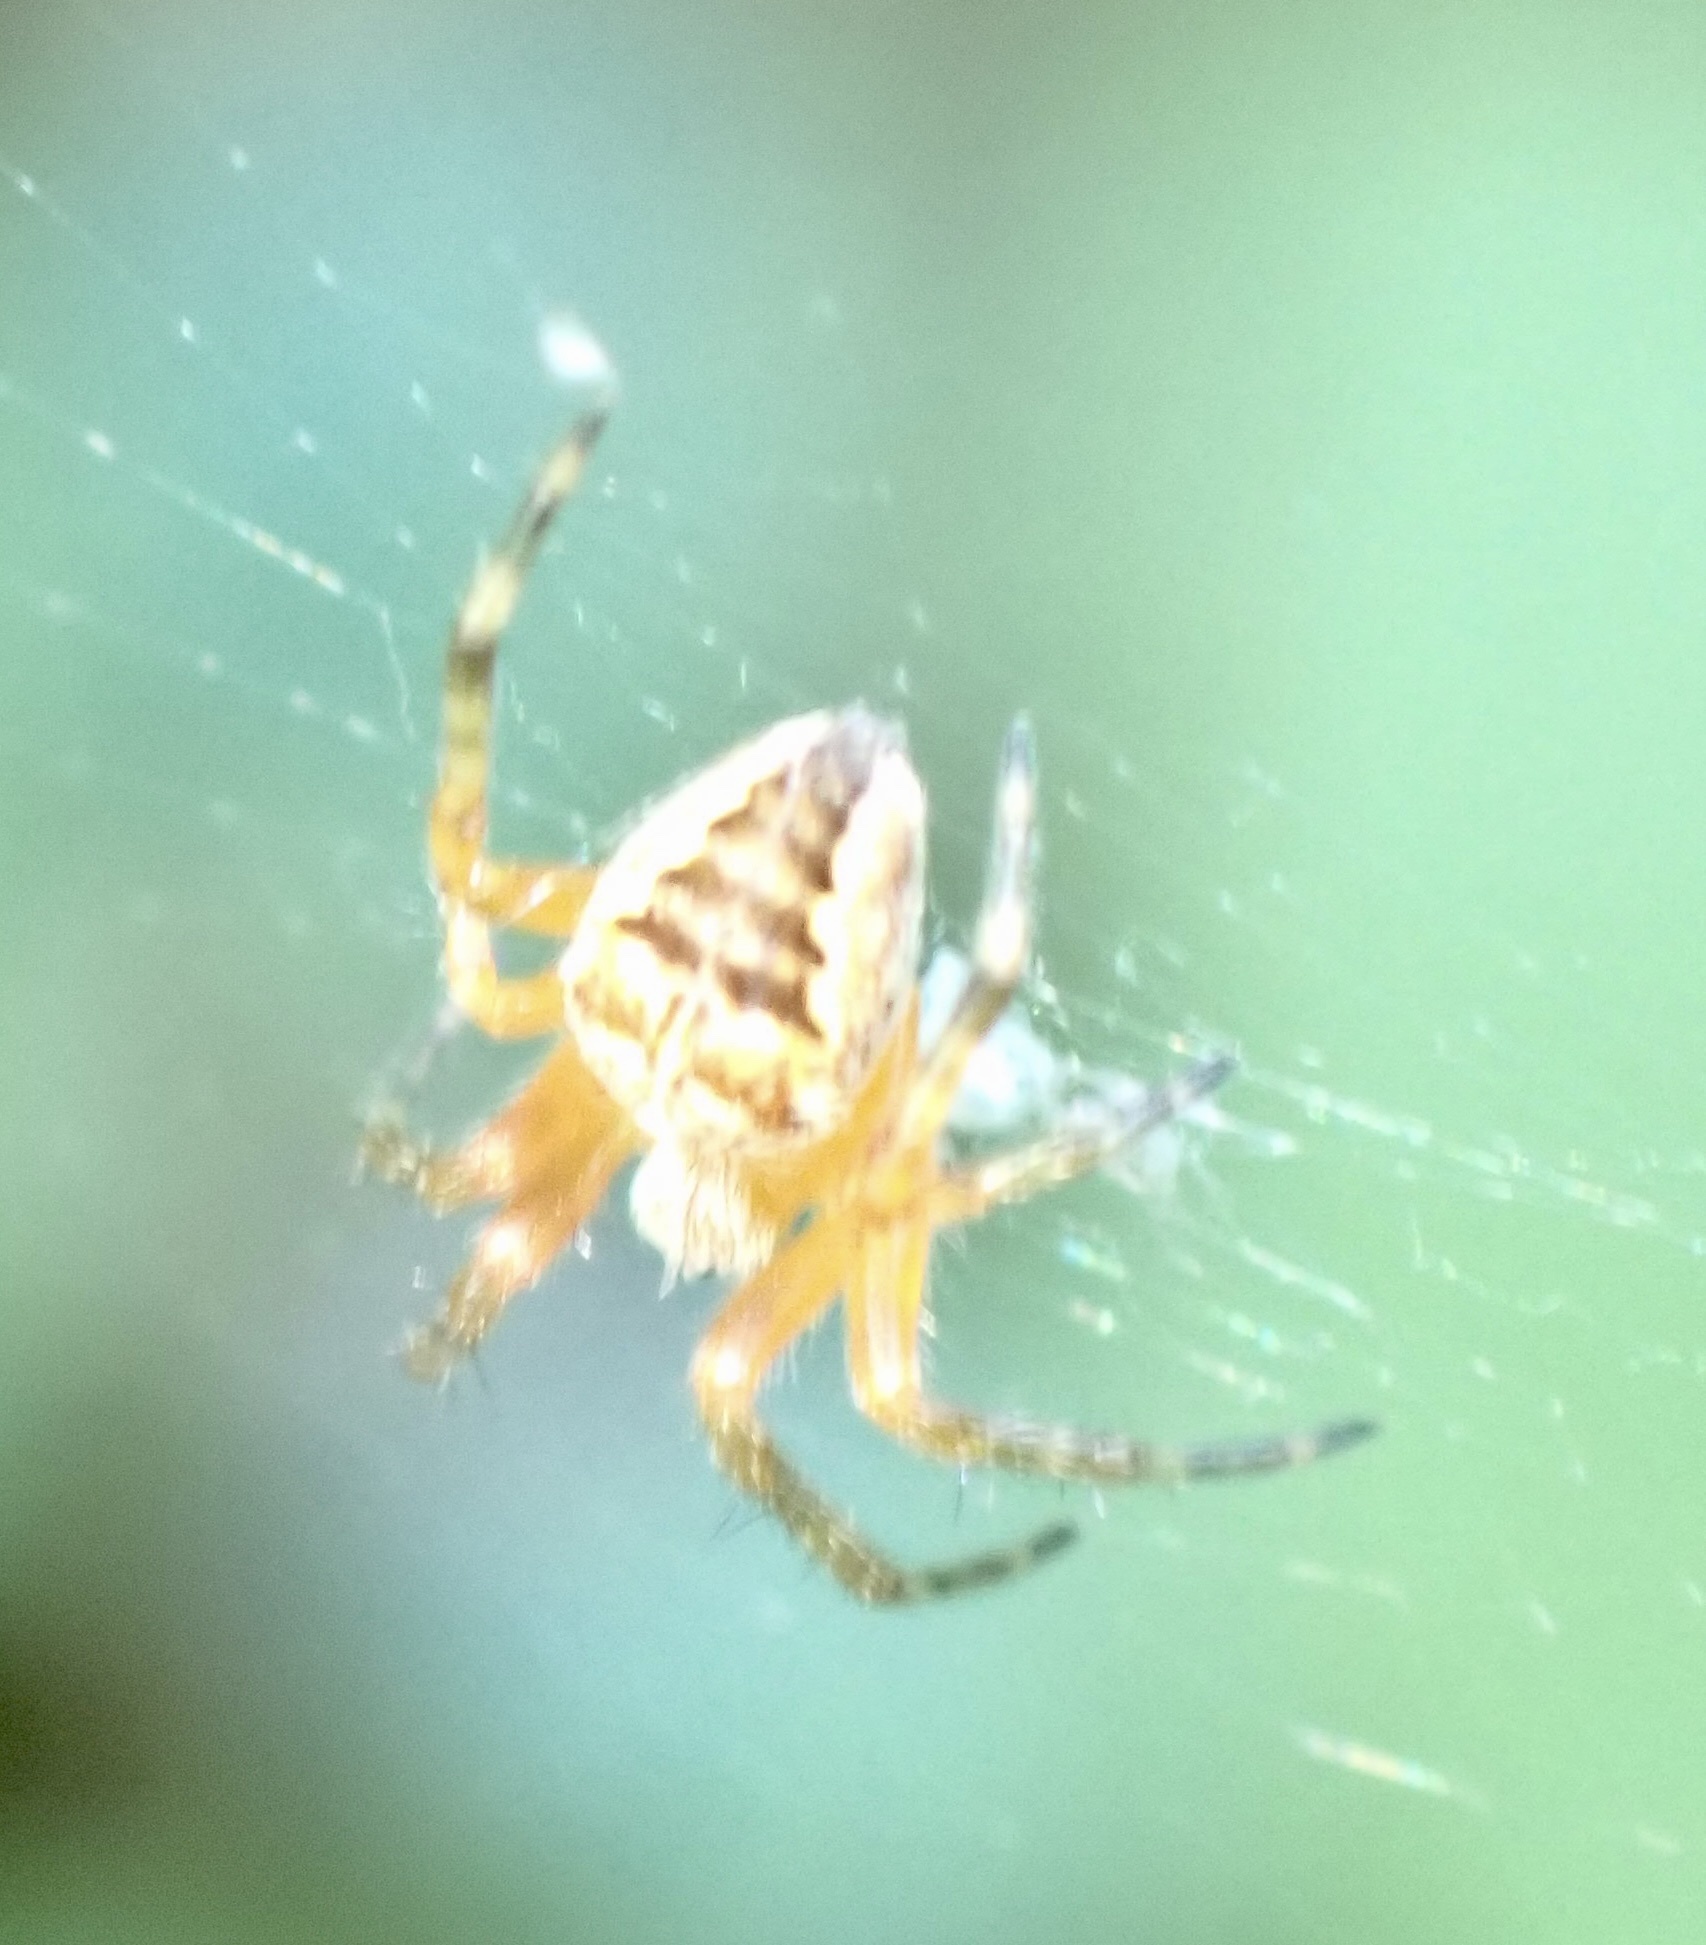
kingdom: Animalia
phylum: Arthropoda
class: Arachnida
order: Araneae
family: Araneidae
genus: Araneus
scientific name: Araneus diadematus
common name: Cross orbweaver
